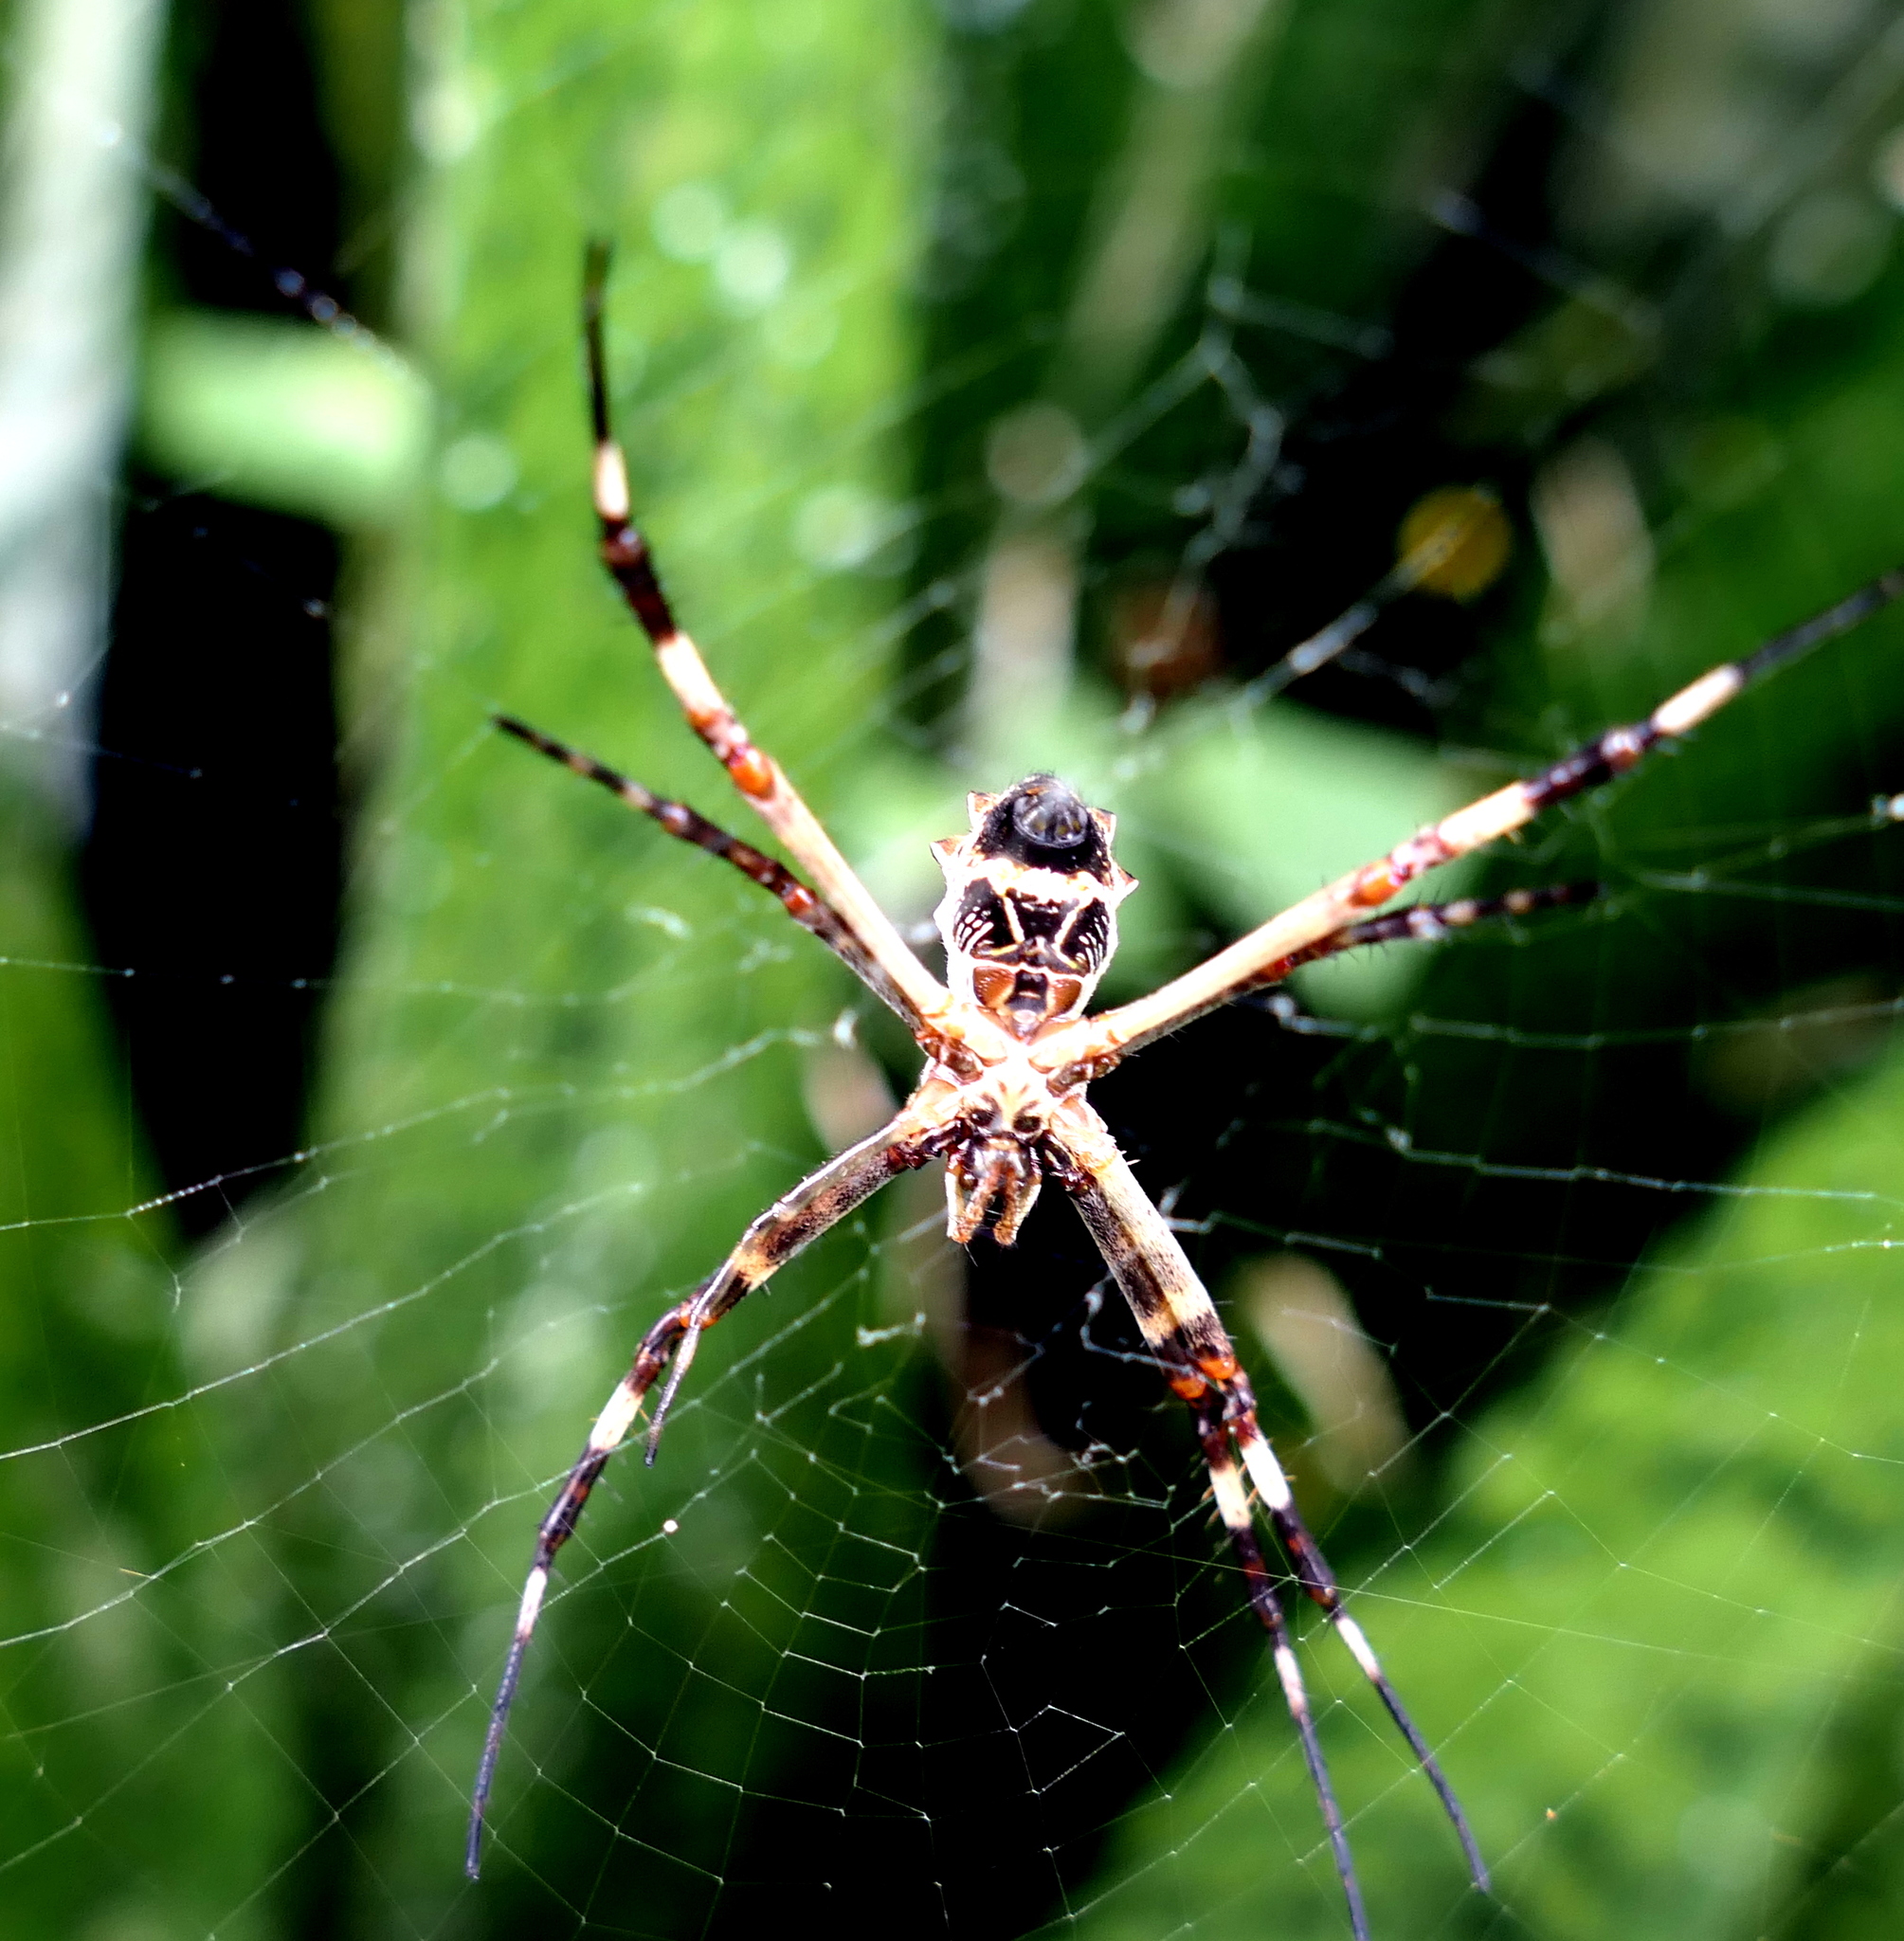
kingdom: Animalia
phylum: Arthropoda
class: Arachnida
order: Araneae
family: Araneidae
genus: Argiope
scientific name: Argiope argentata
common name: Orb weavers
